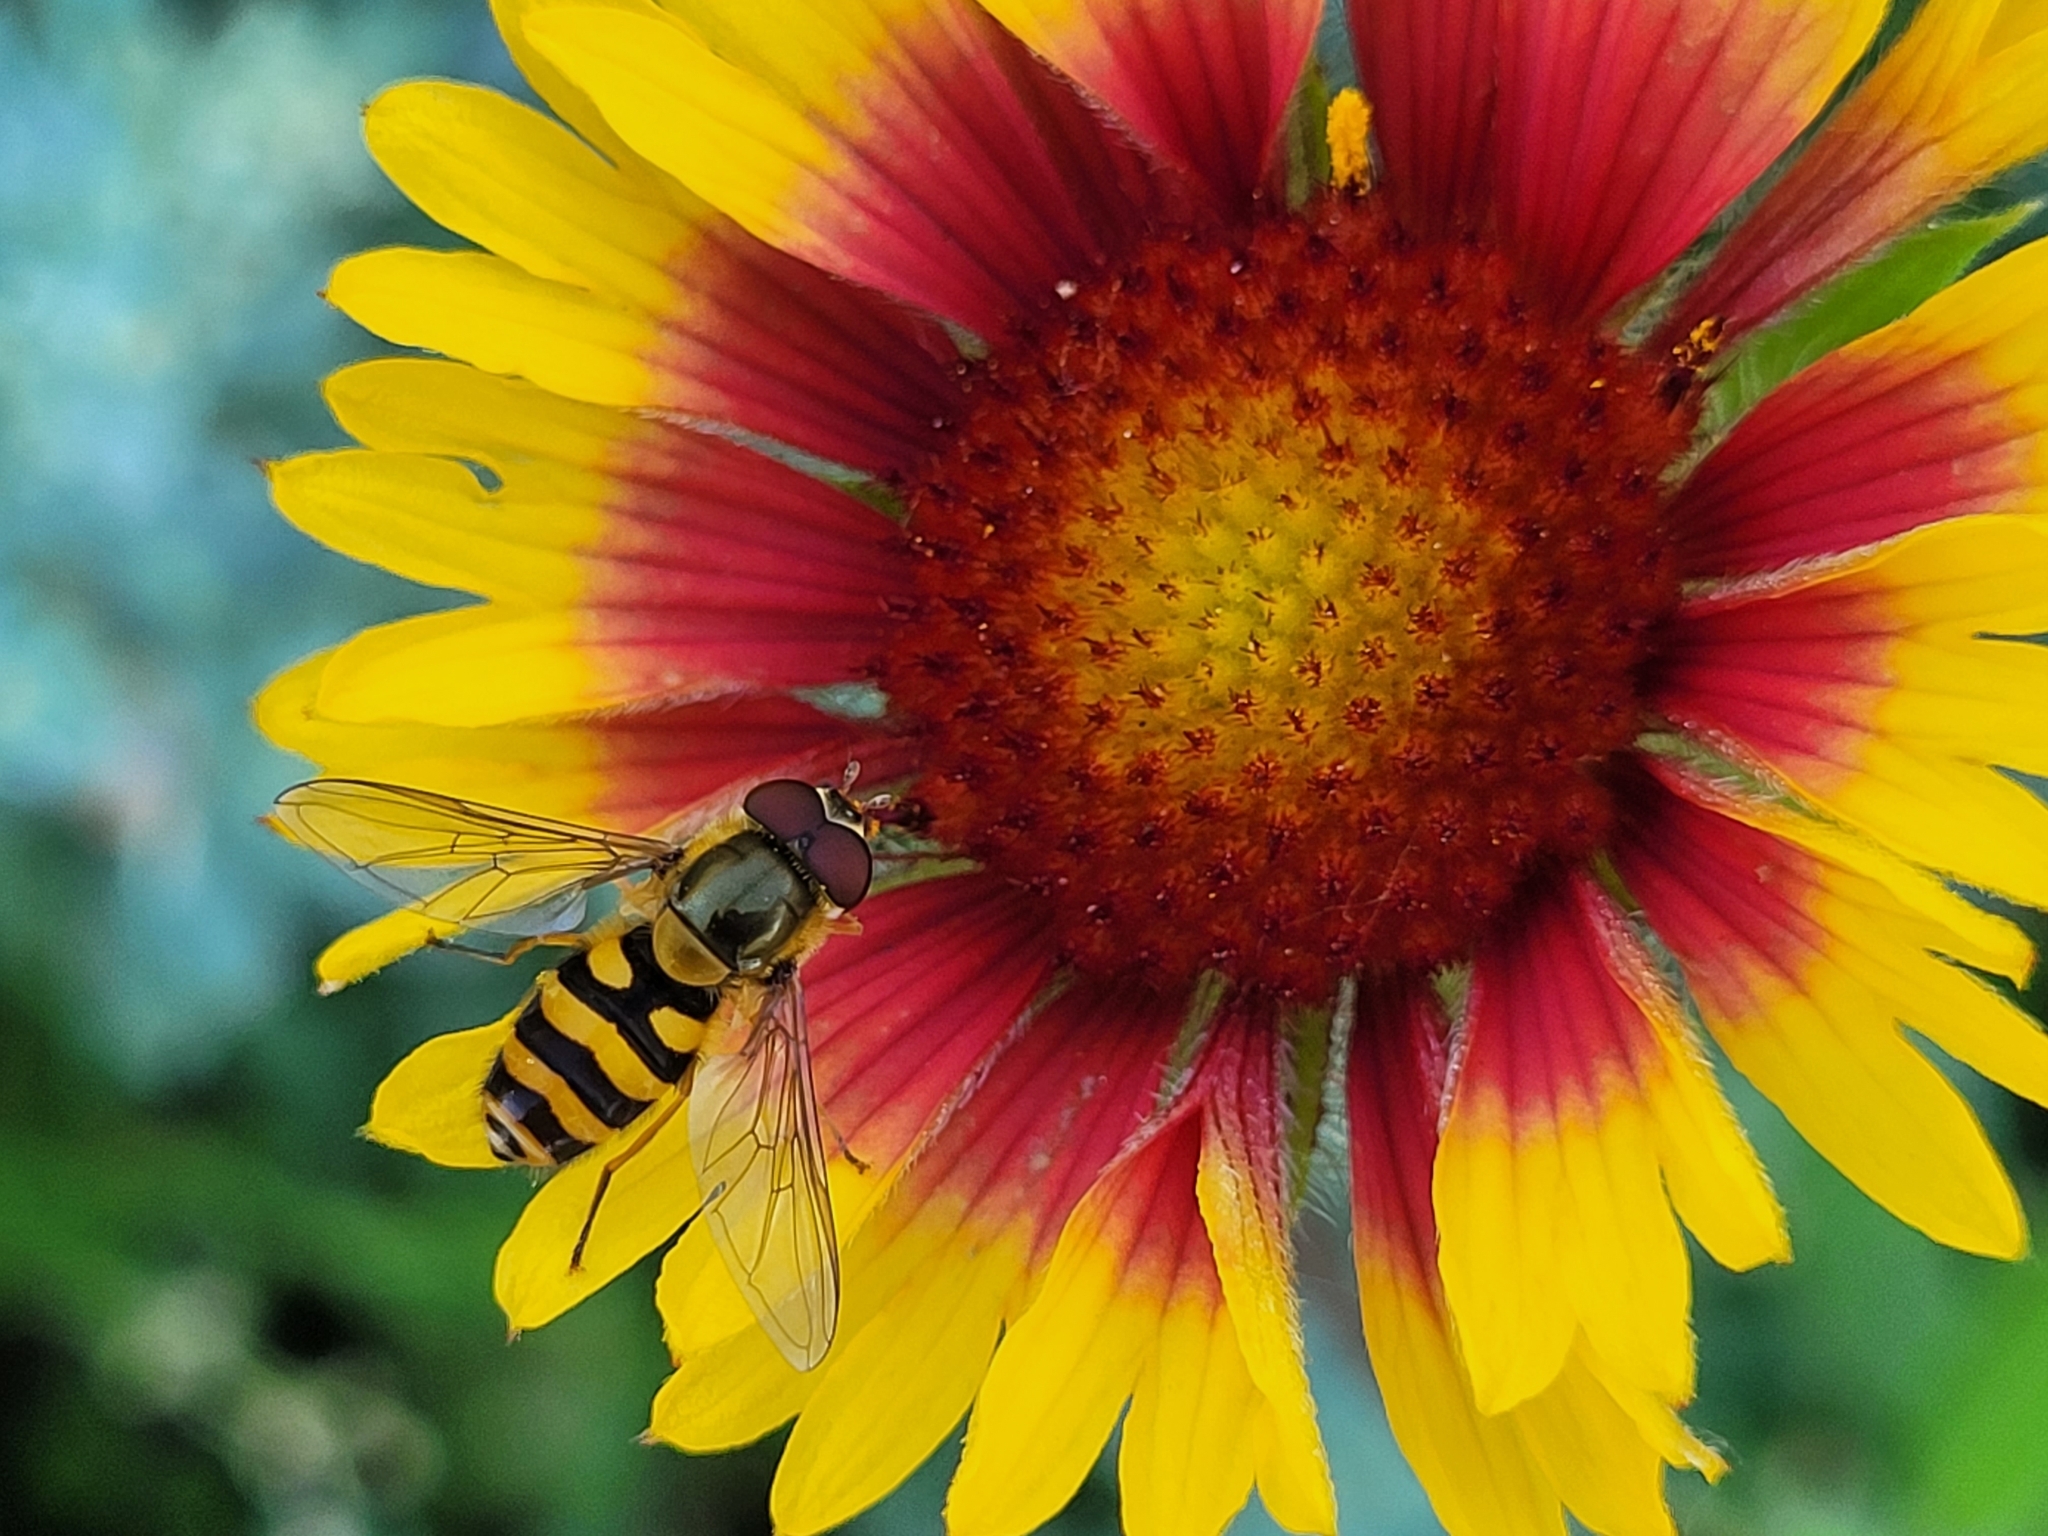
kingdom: Animalia
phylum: Arthropoda
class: Insecta
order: Diptera
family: Syrphidae
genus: Syrphus
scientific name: Syrphus
